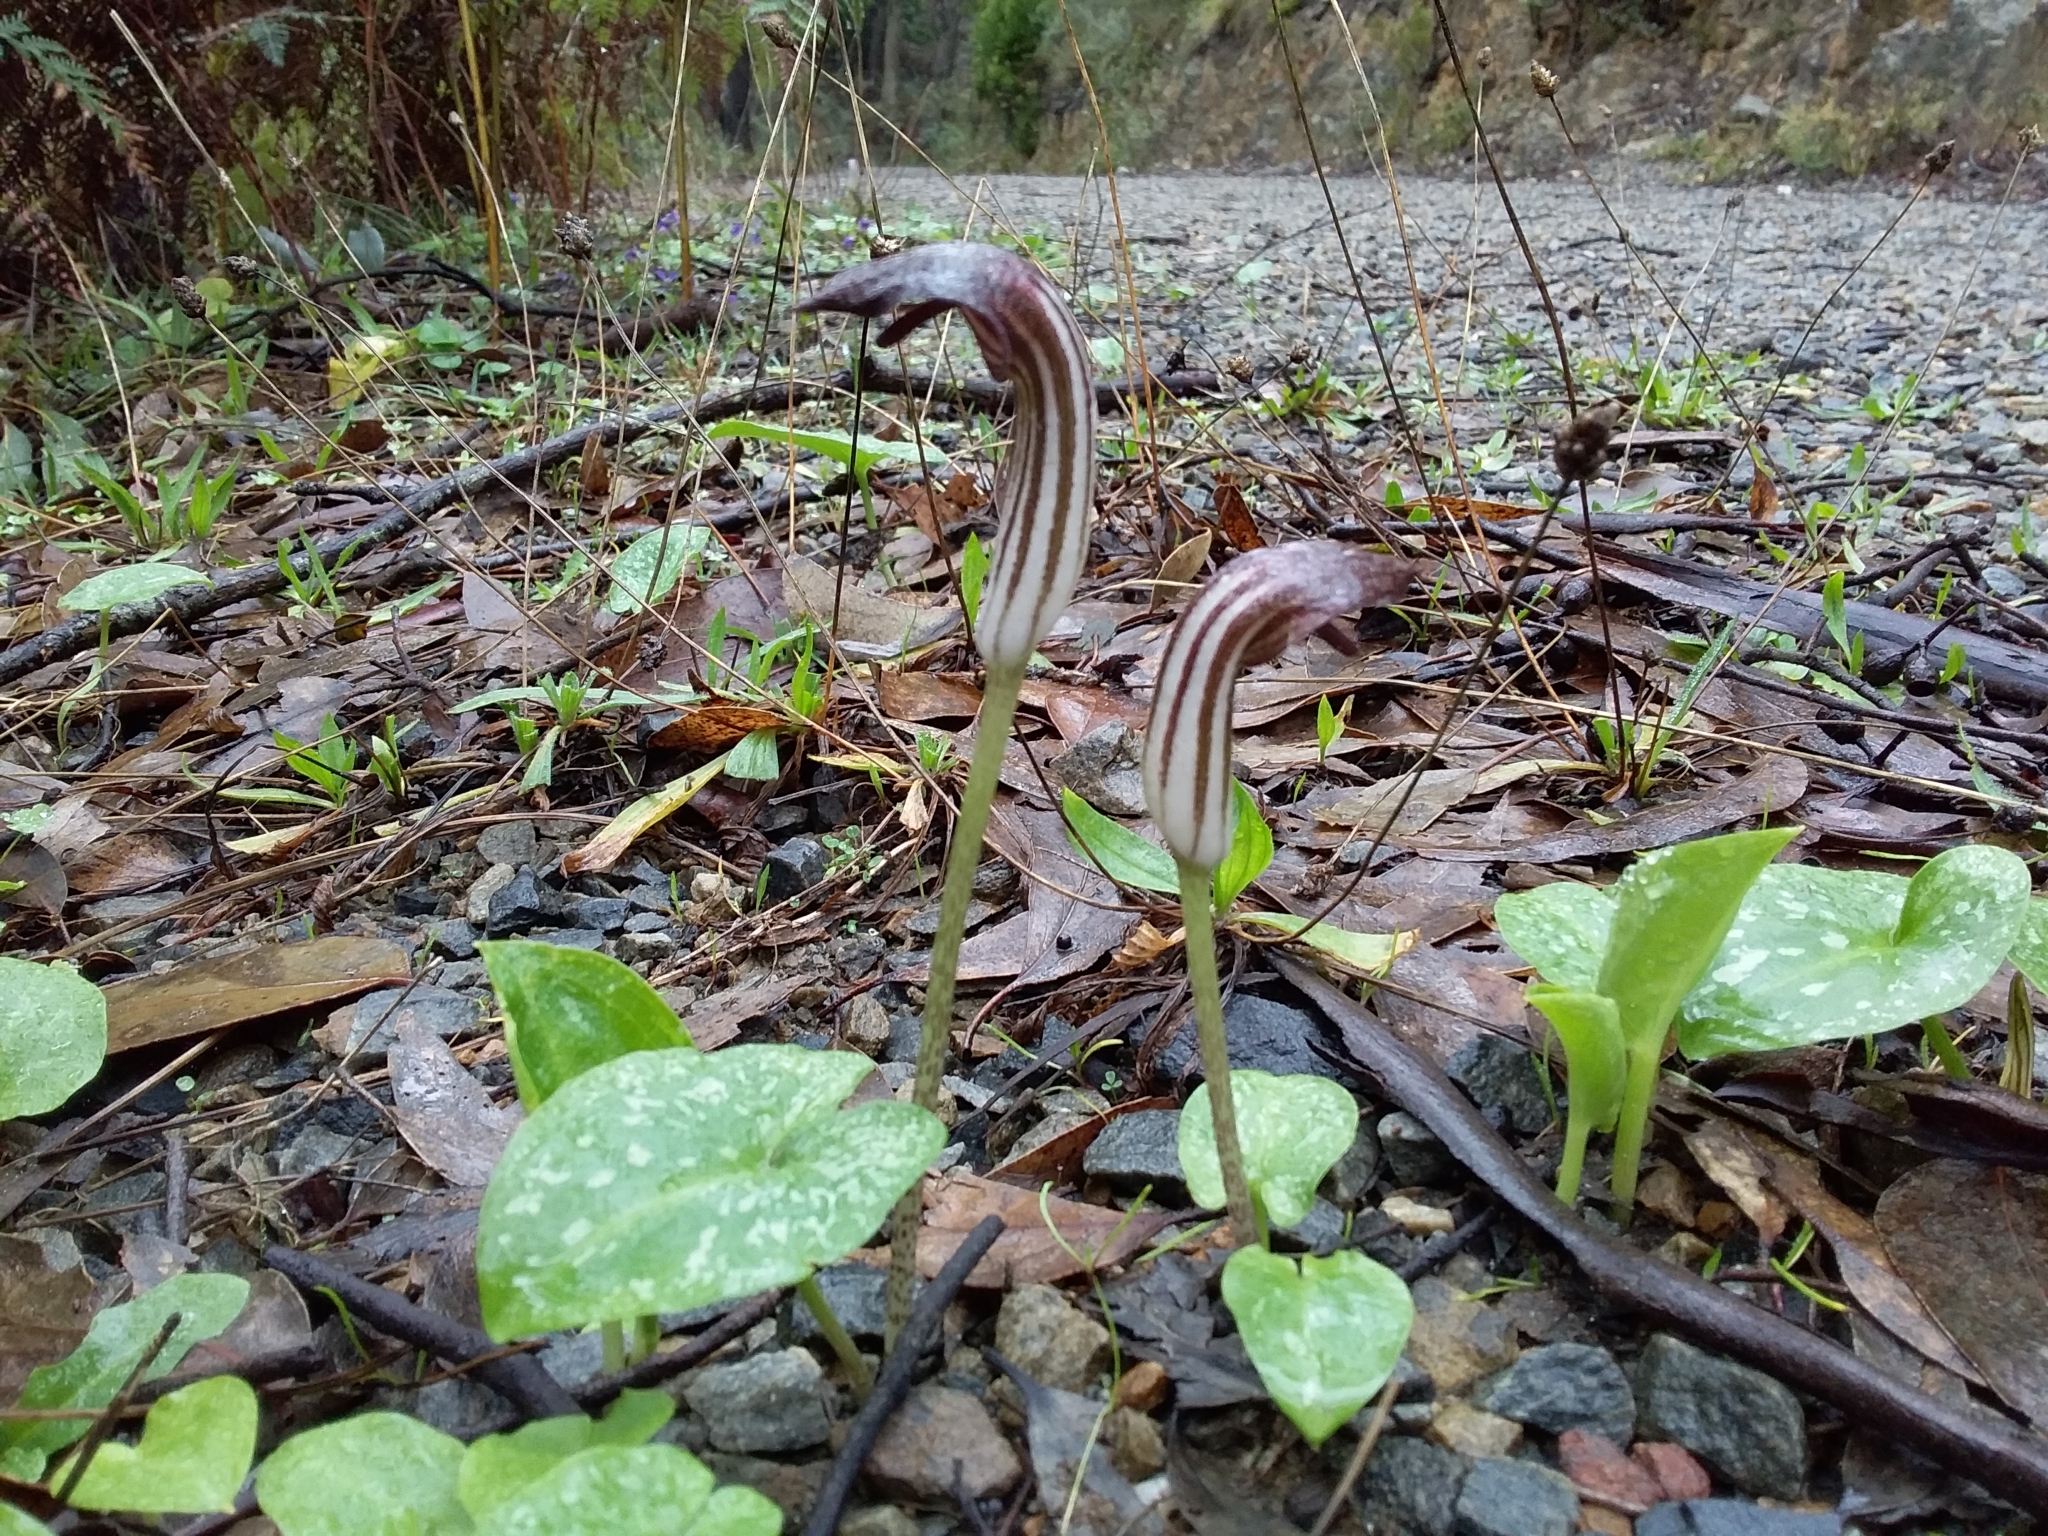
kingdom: Plantae
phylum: Tracheophyta
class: Liliopsida
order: Alismatales
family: Araceae
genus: Arisarum
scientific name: Arisarum vulgare
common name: Common arisarum
